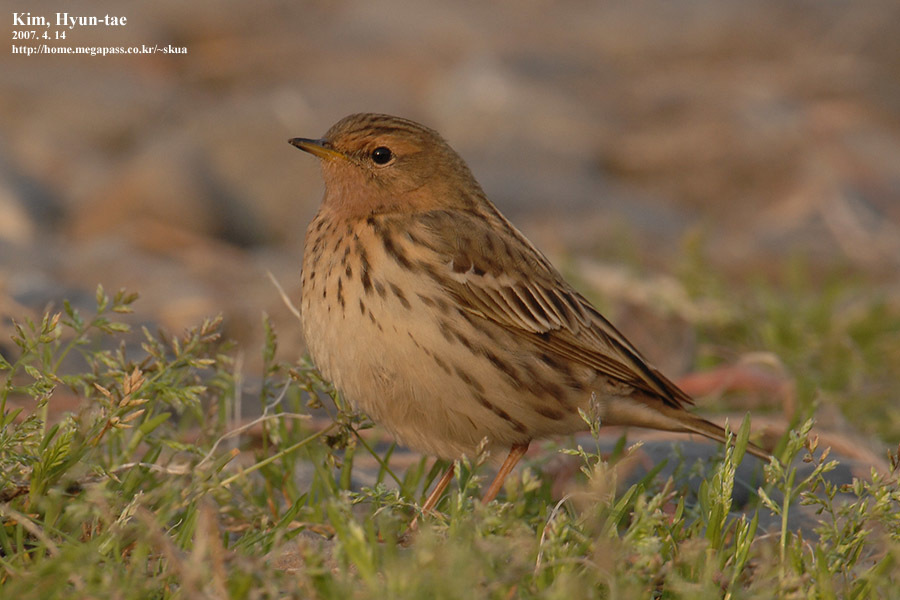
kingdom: Animalia
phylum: Chordata
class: Aves
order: Passeriformes
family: Motacillidae
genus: Anthus
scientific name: Anthus cervinus
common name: Red-throated pipit
